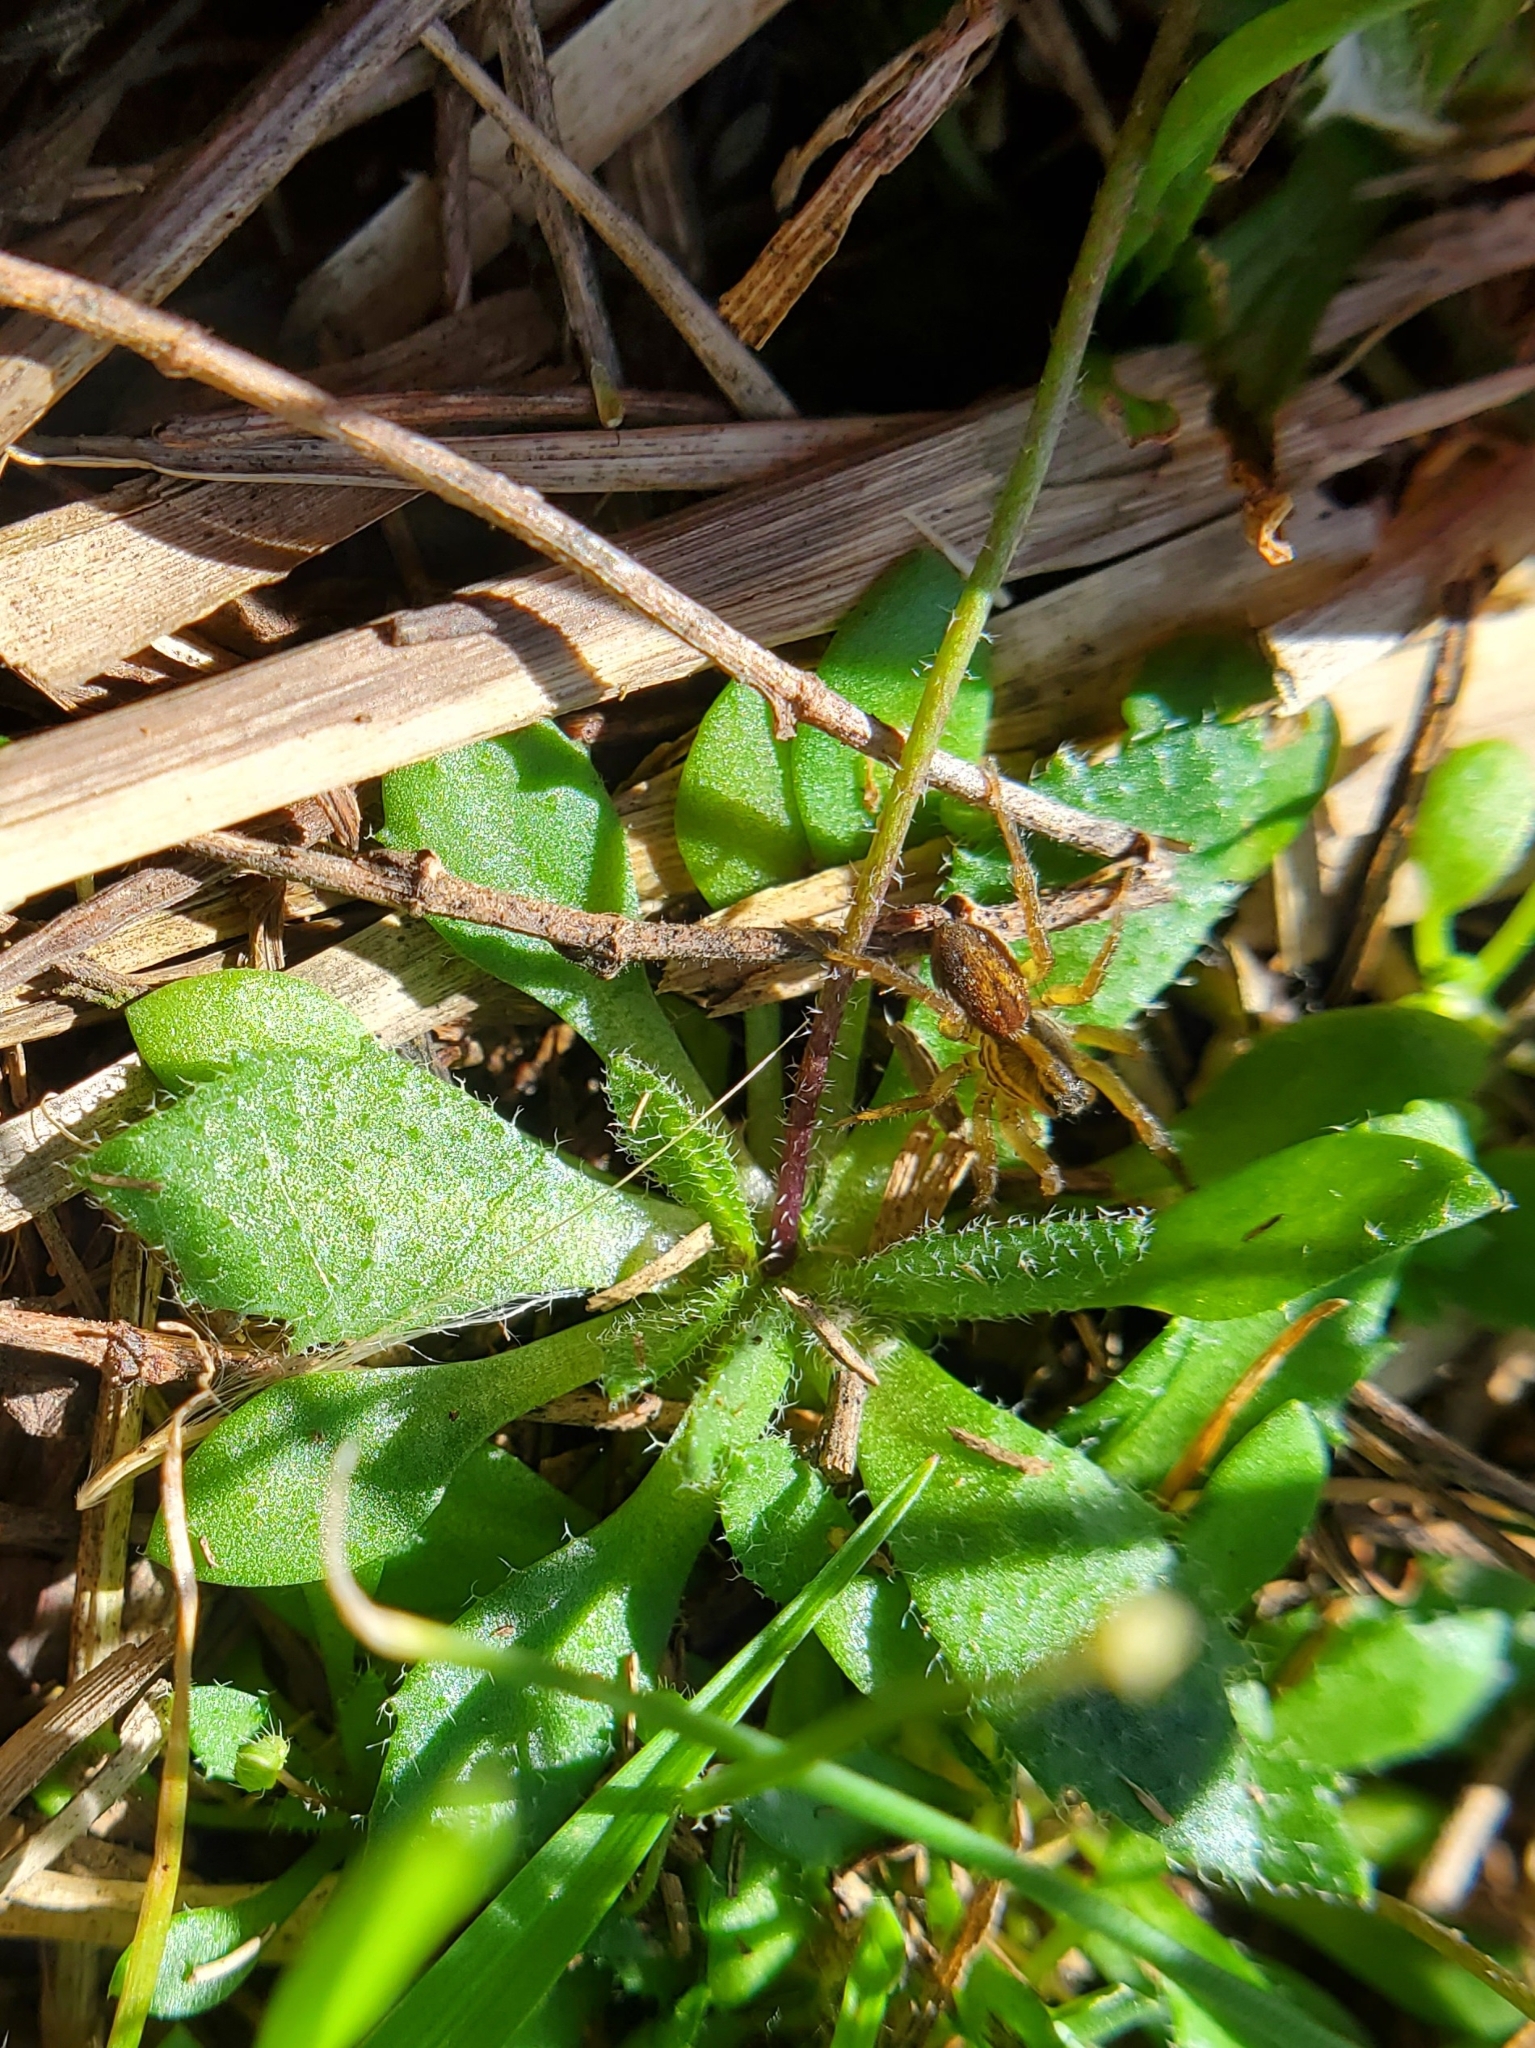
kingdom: Plantae
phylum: Tracheophyta
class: Magnoliopsida
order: Brassicales
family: Brassicaceae
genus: Draba
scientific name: Draba verna
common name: Spring draba
